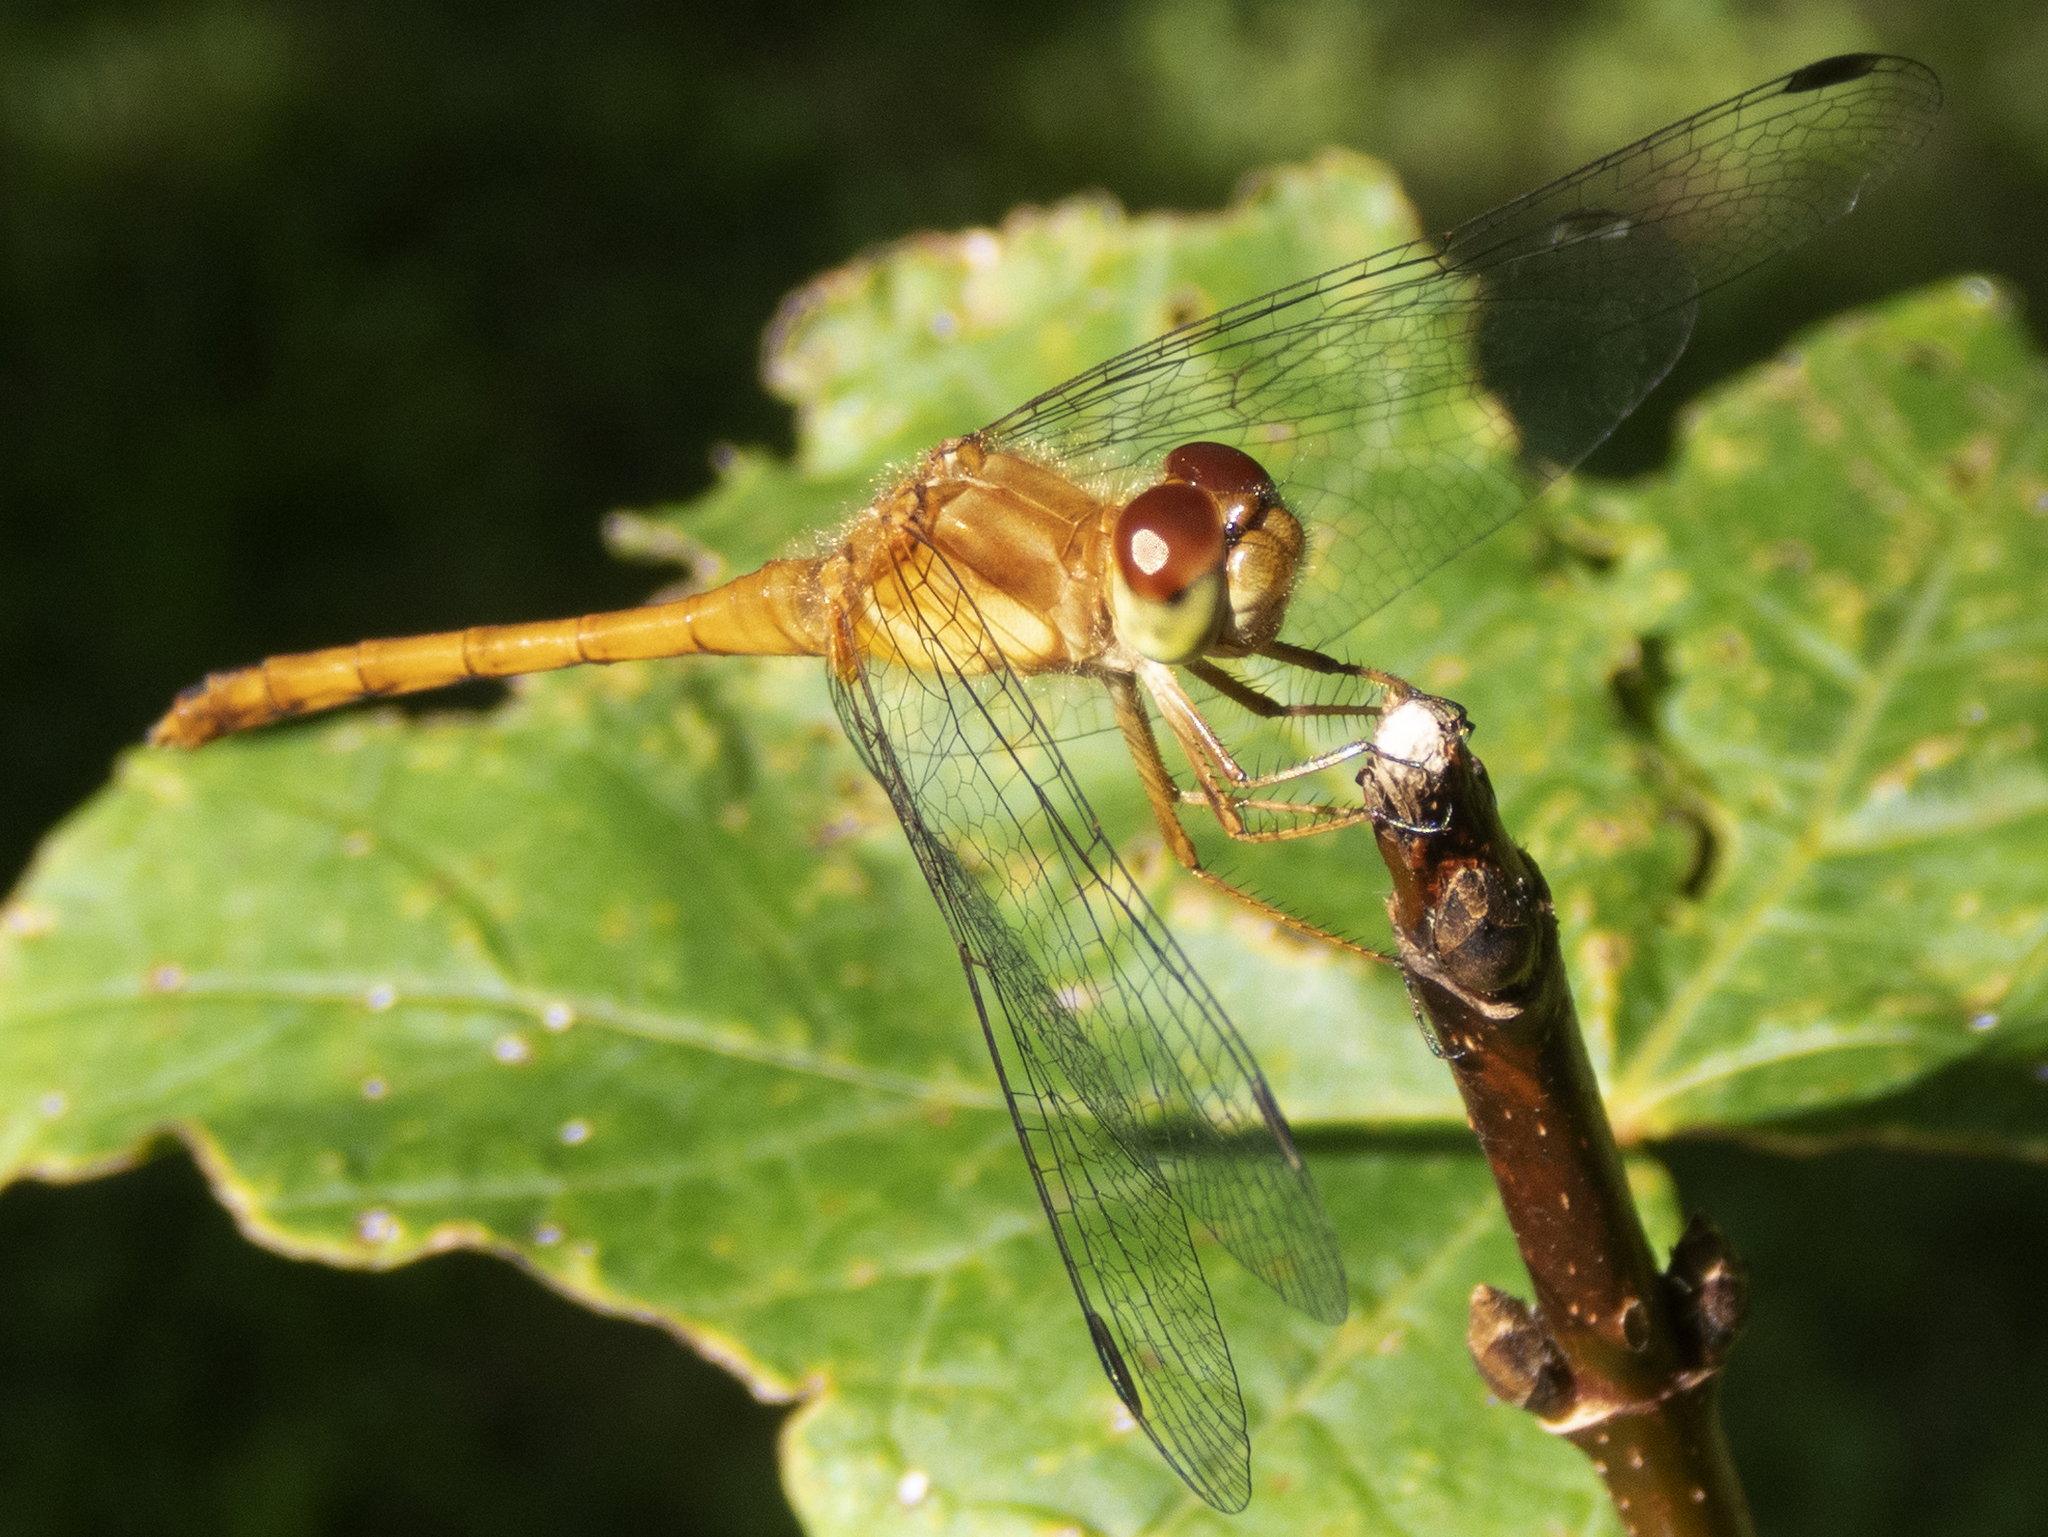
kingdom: Animalia
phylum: Arthropoda
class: Insecta
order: Odonata
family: Libellulidae
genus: Sympetrum
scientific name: Sympetrum vicinum
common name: Autumn meadowhawk
